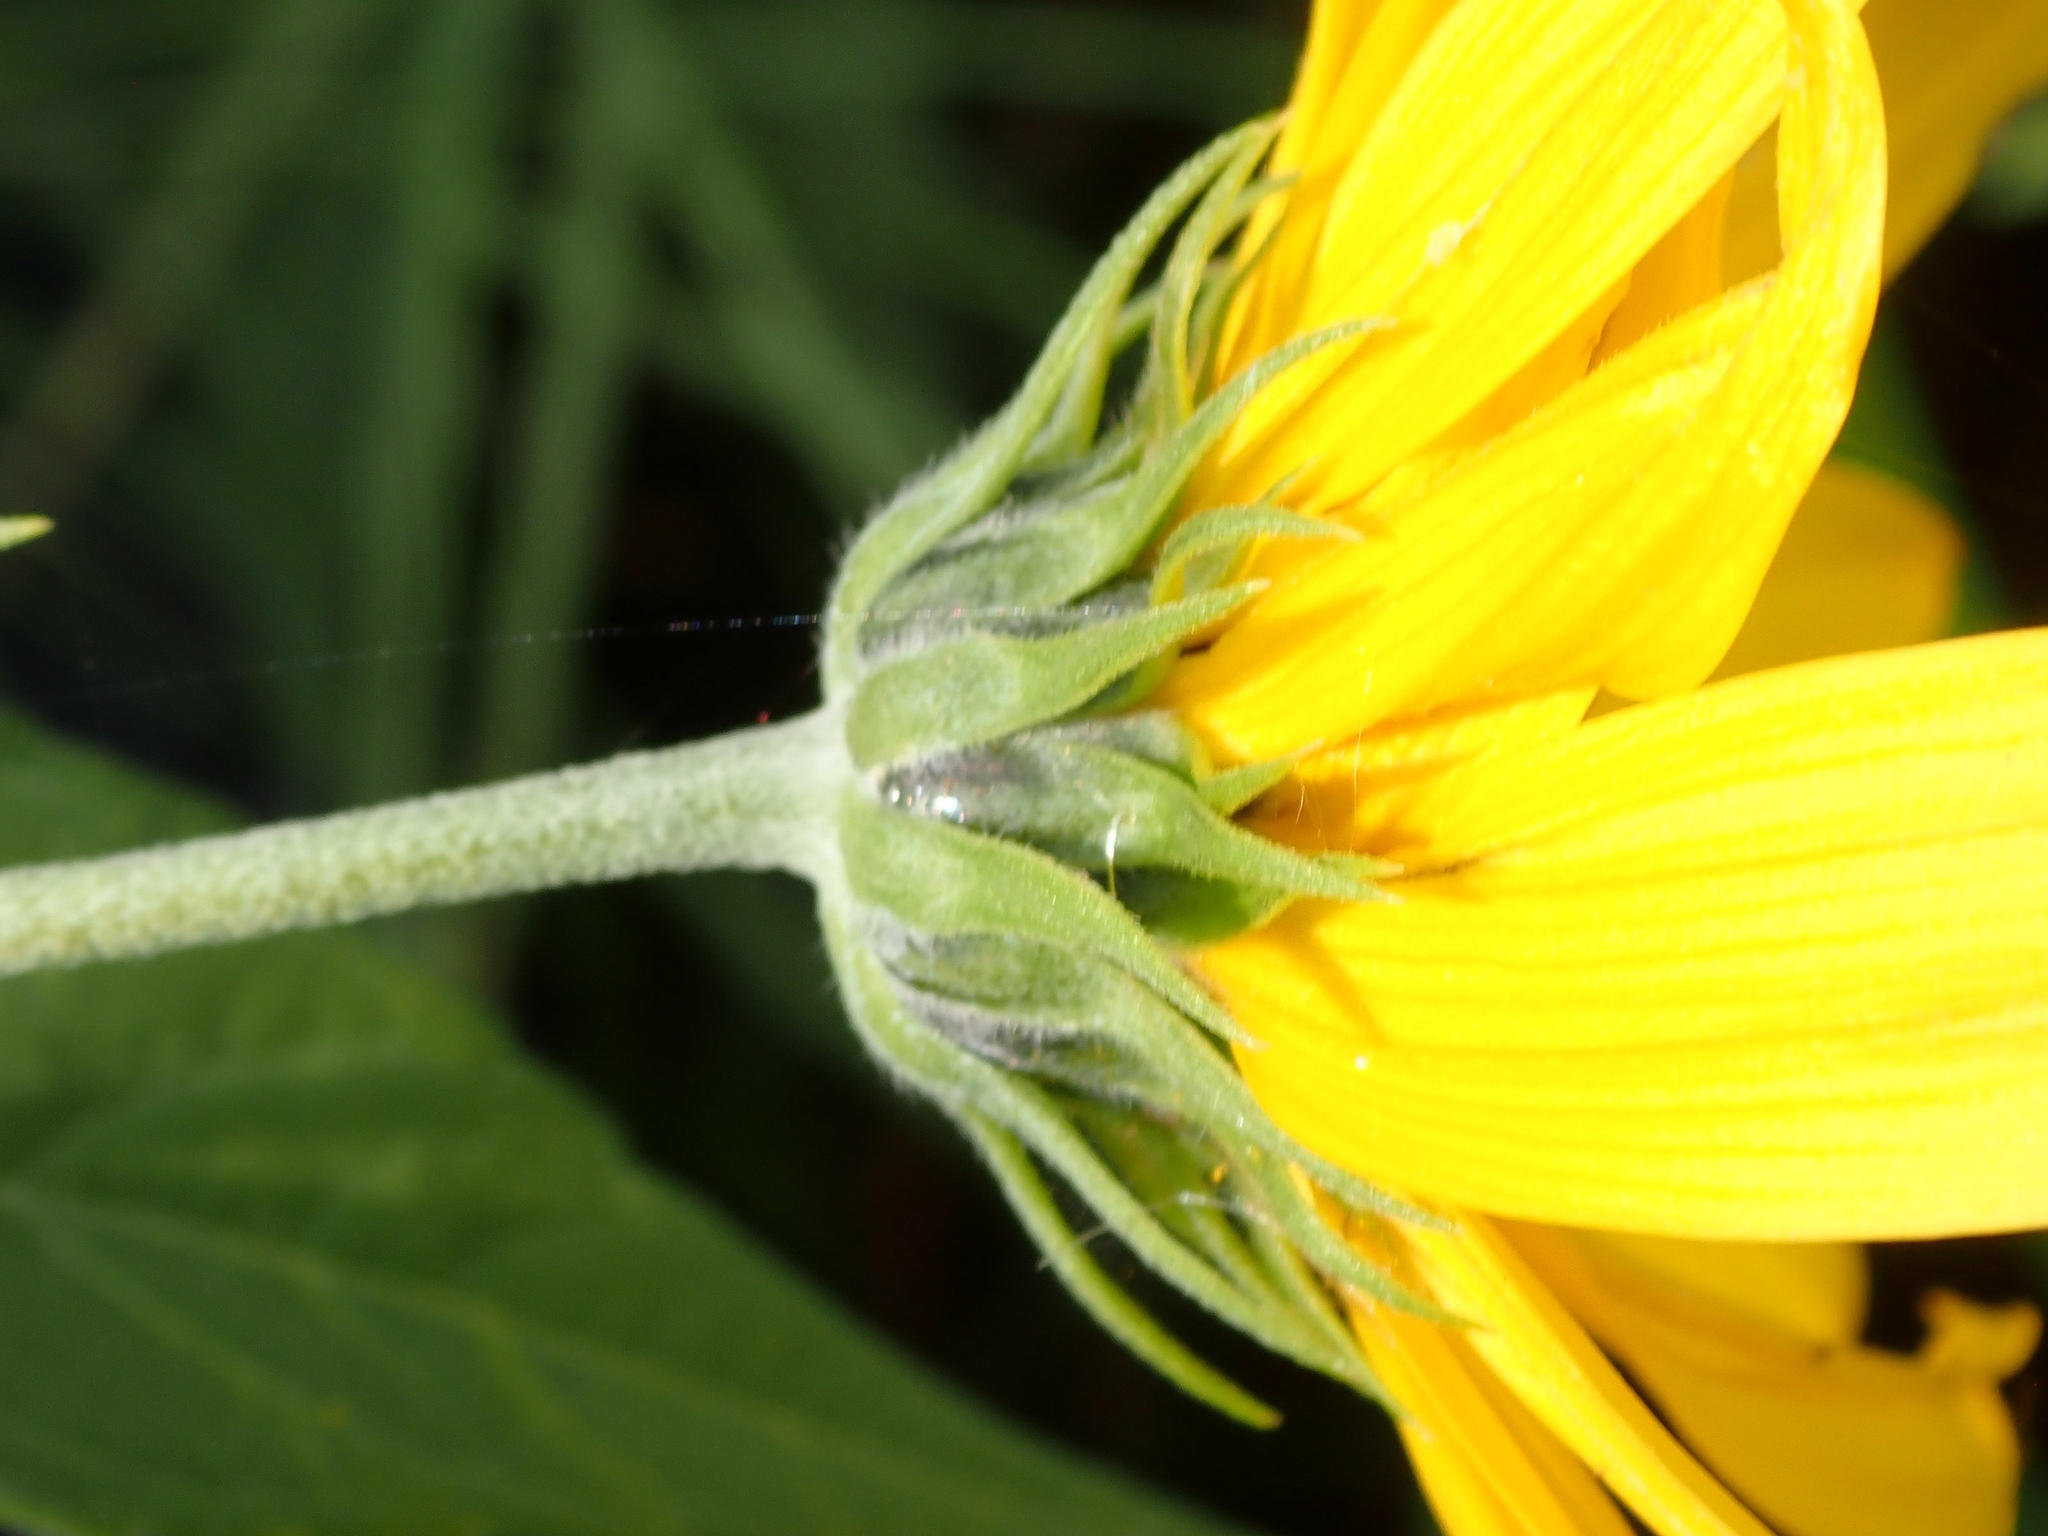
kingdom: Plantae
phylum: Tracheophyta
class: Magnoliopsida
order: Asterales
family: Asteraceae
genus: Helianthus
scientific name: Helianthus tuberosus
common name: Jerusalem artichoke
